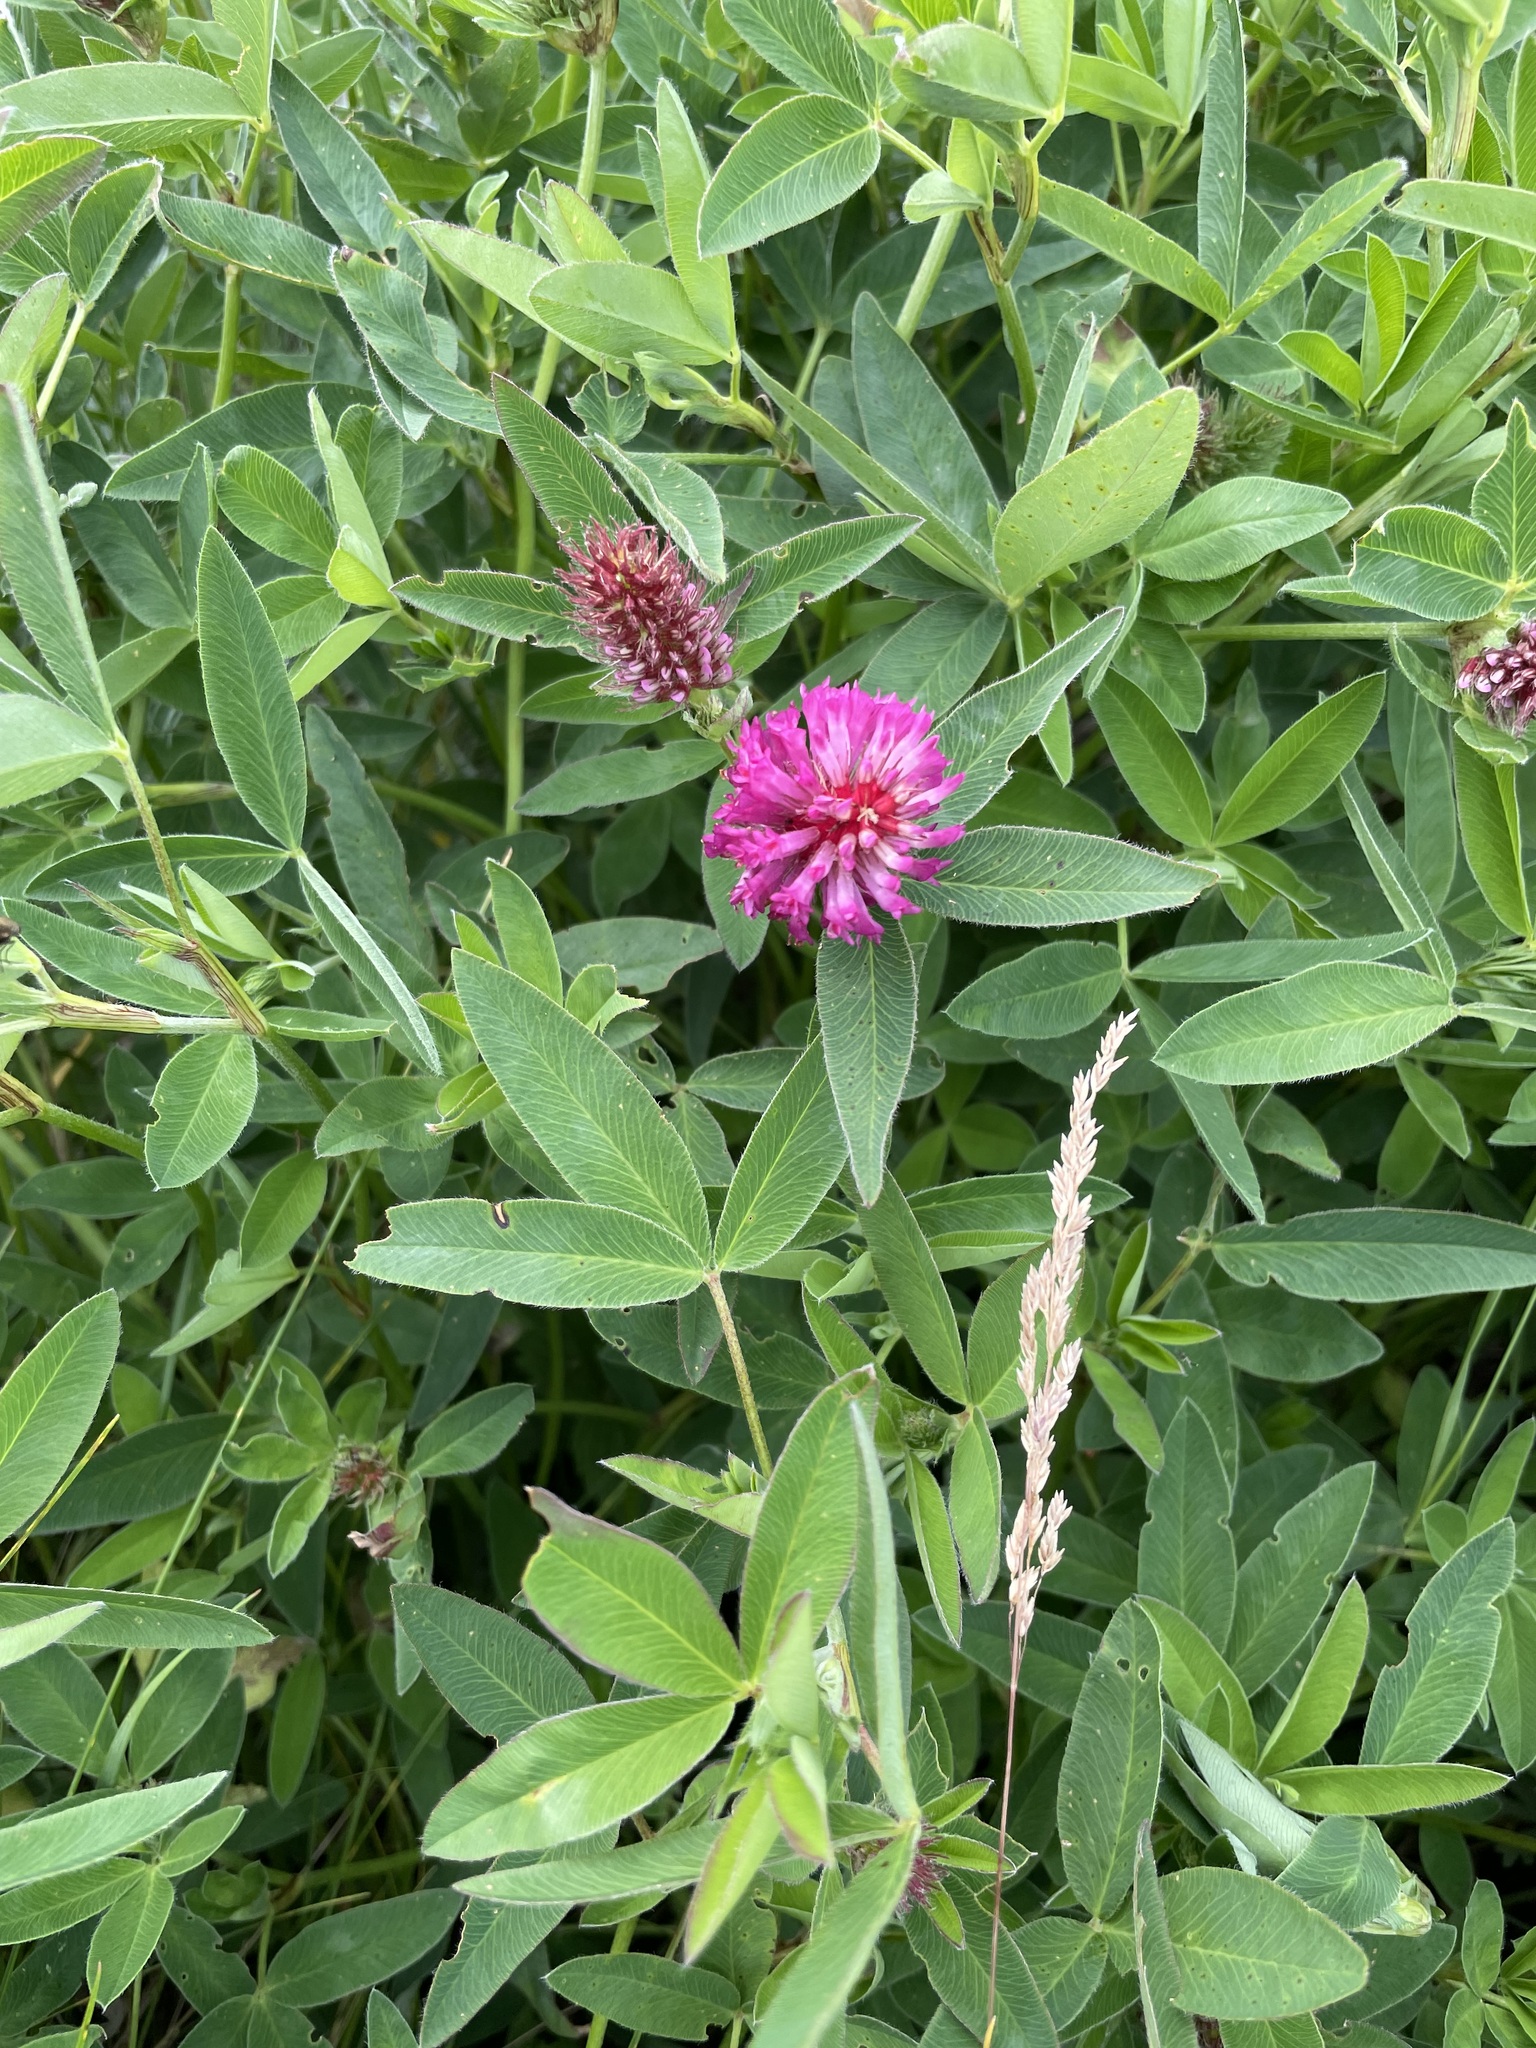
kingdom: Plantae
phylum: Tracheophyta
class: Magnoliopsida
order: Fabales
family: Fabaceae
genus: Trifolium
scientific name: Trifolium medium
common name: Zigzag clover
